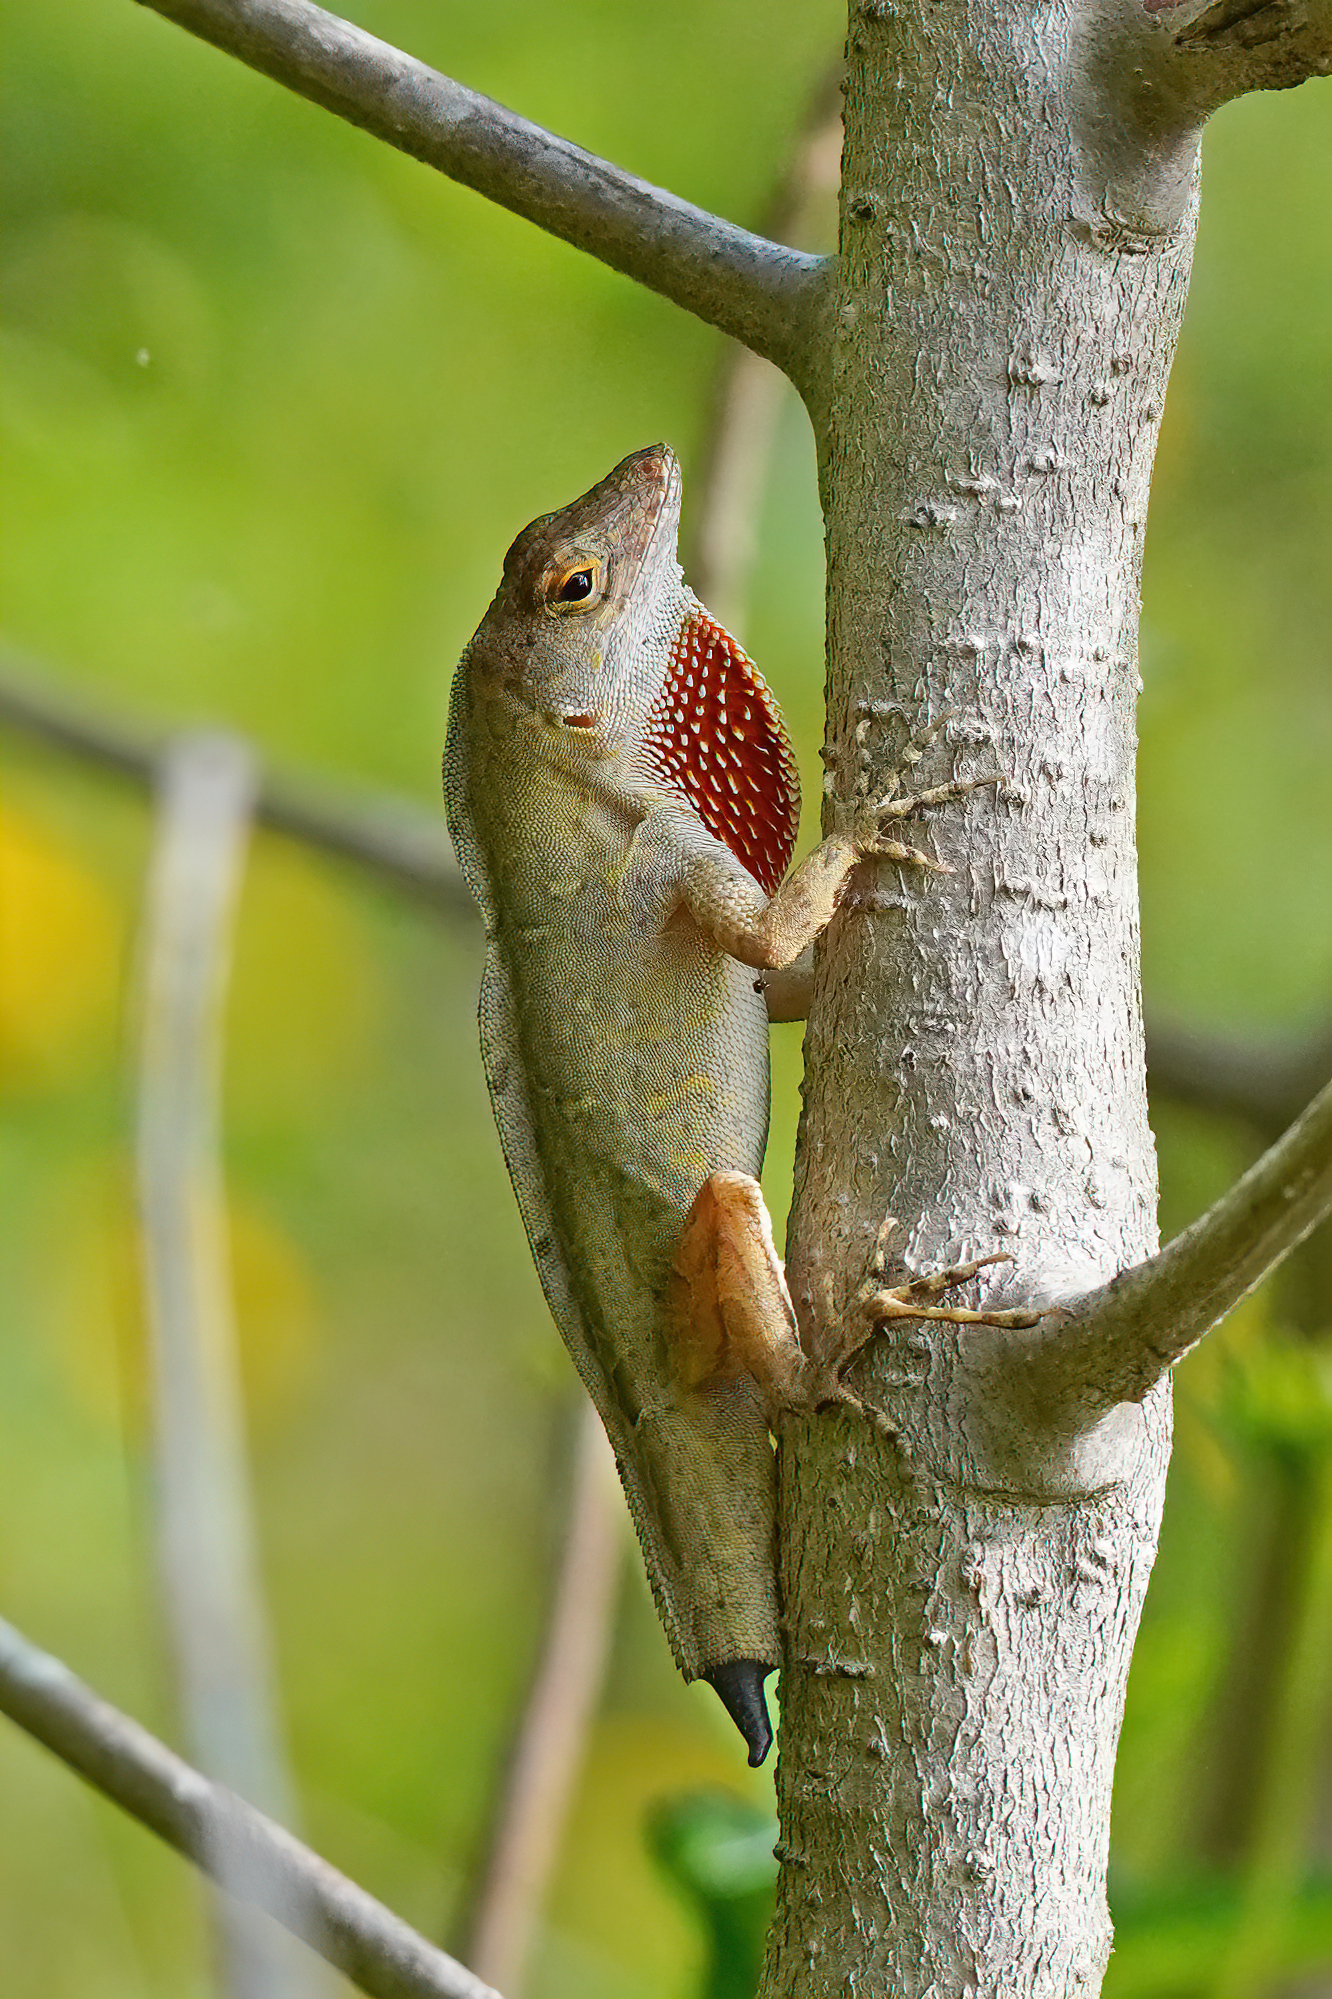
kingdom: Animalia
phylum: Chordata
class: Squamata
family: Dactyloidae
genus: Anolis
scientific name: Anolis sagrei
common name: Brown anole
